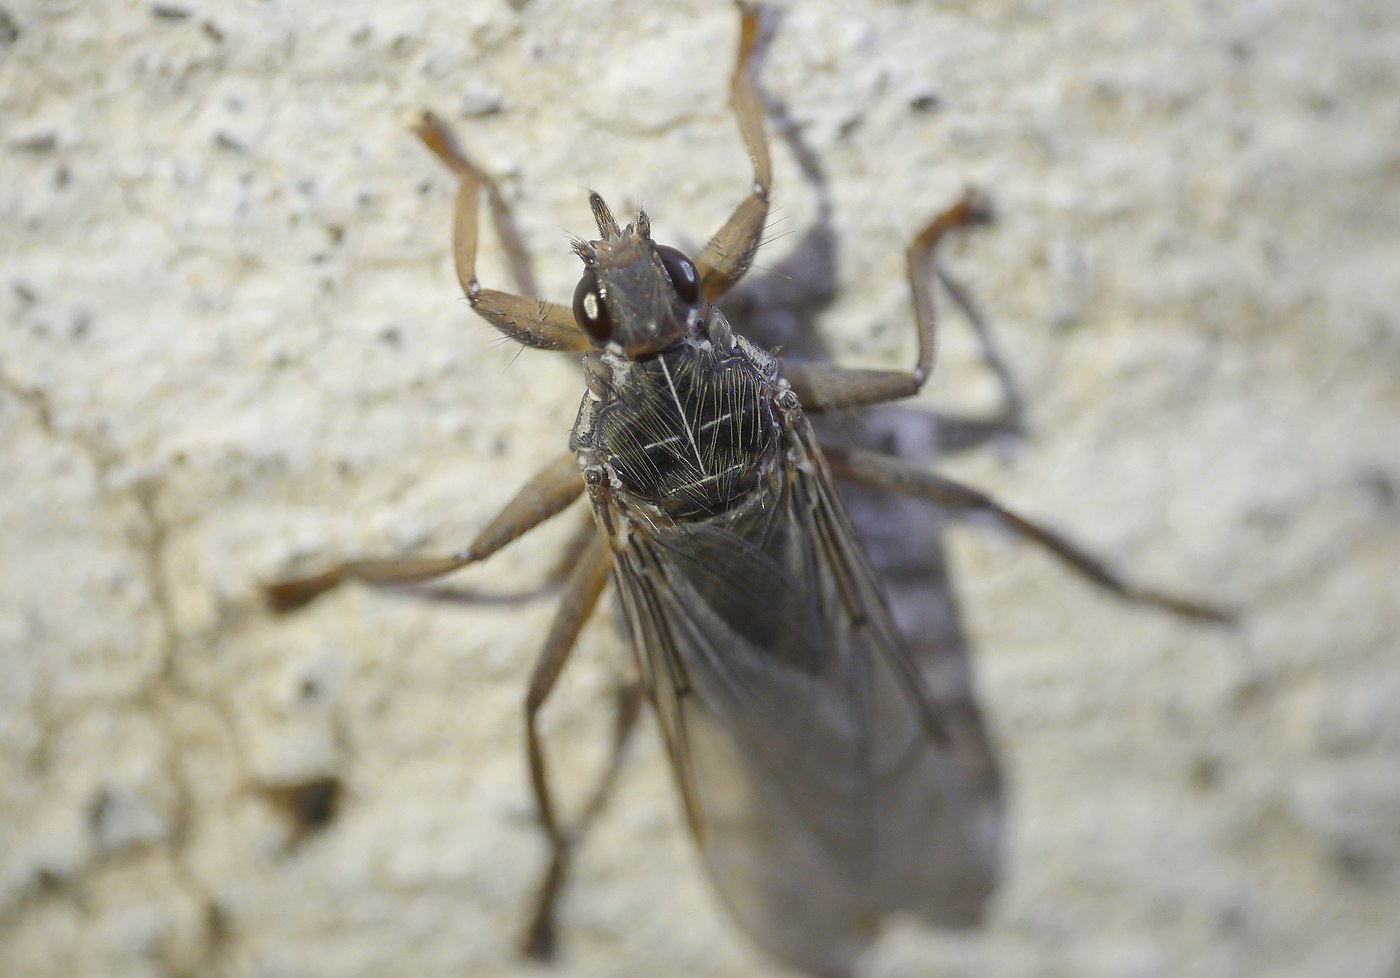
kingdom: Animalia
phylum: Arthropoda
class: Insecta
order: Diptera
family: Hippoboscidae
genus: Pseudolynchia
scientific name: Pseudolynchia canariensis
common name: Louse fly
